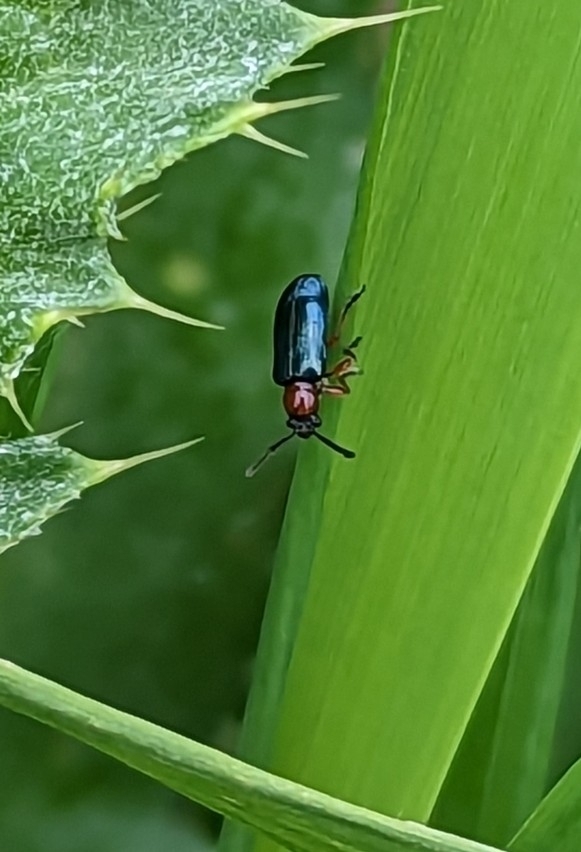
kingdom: Animalia
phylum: Arthropoda
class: Insecta
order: Coleoptera
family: Chrysomelidae
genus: Oulema
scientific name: Oulema
